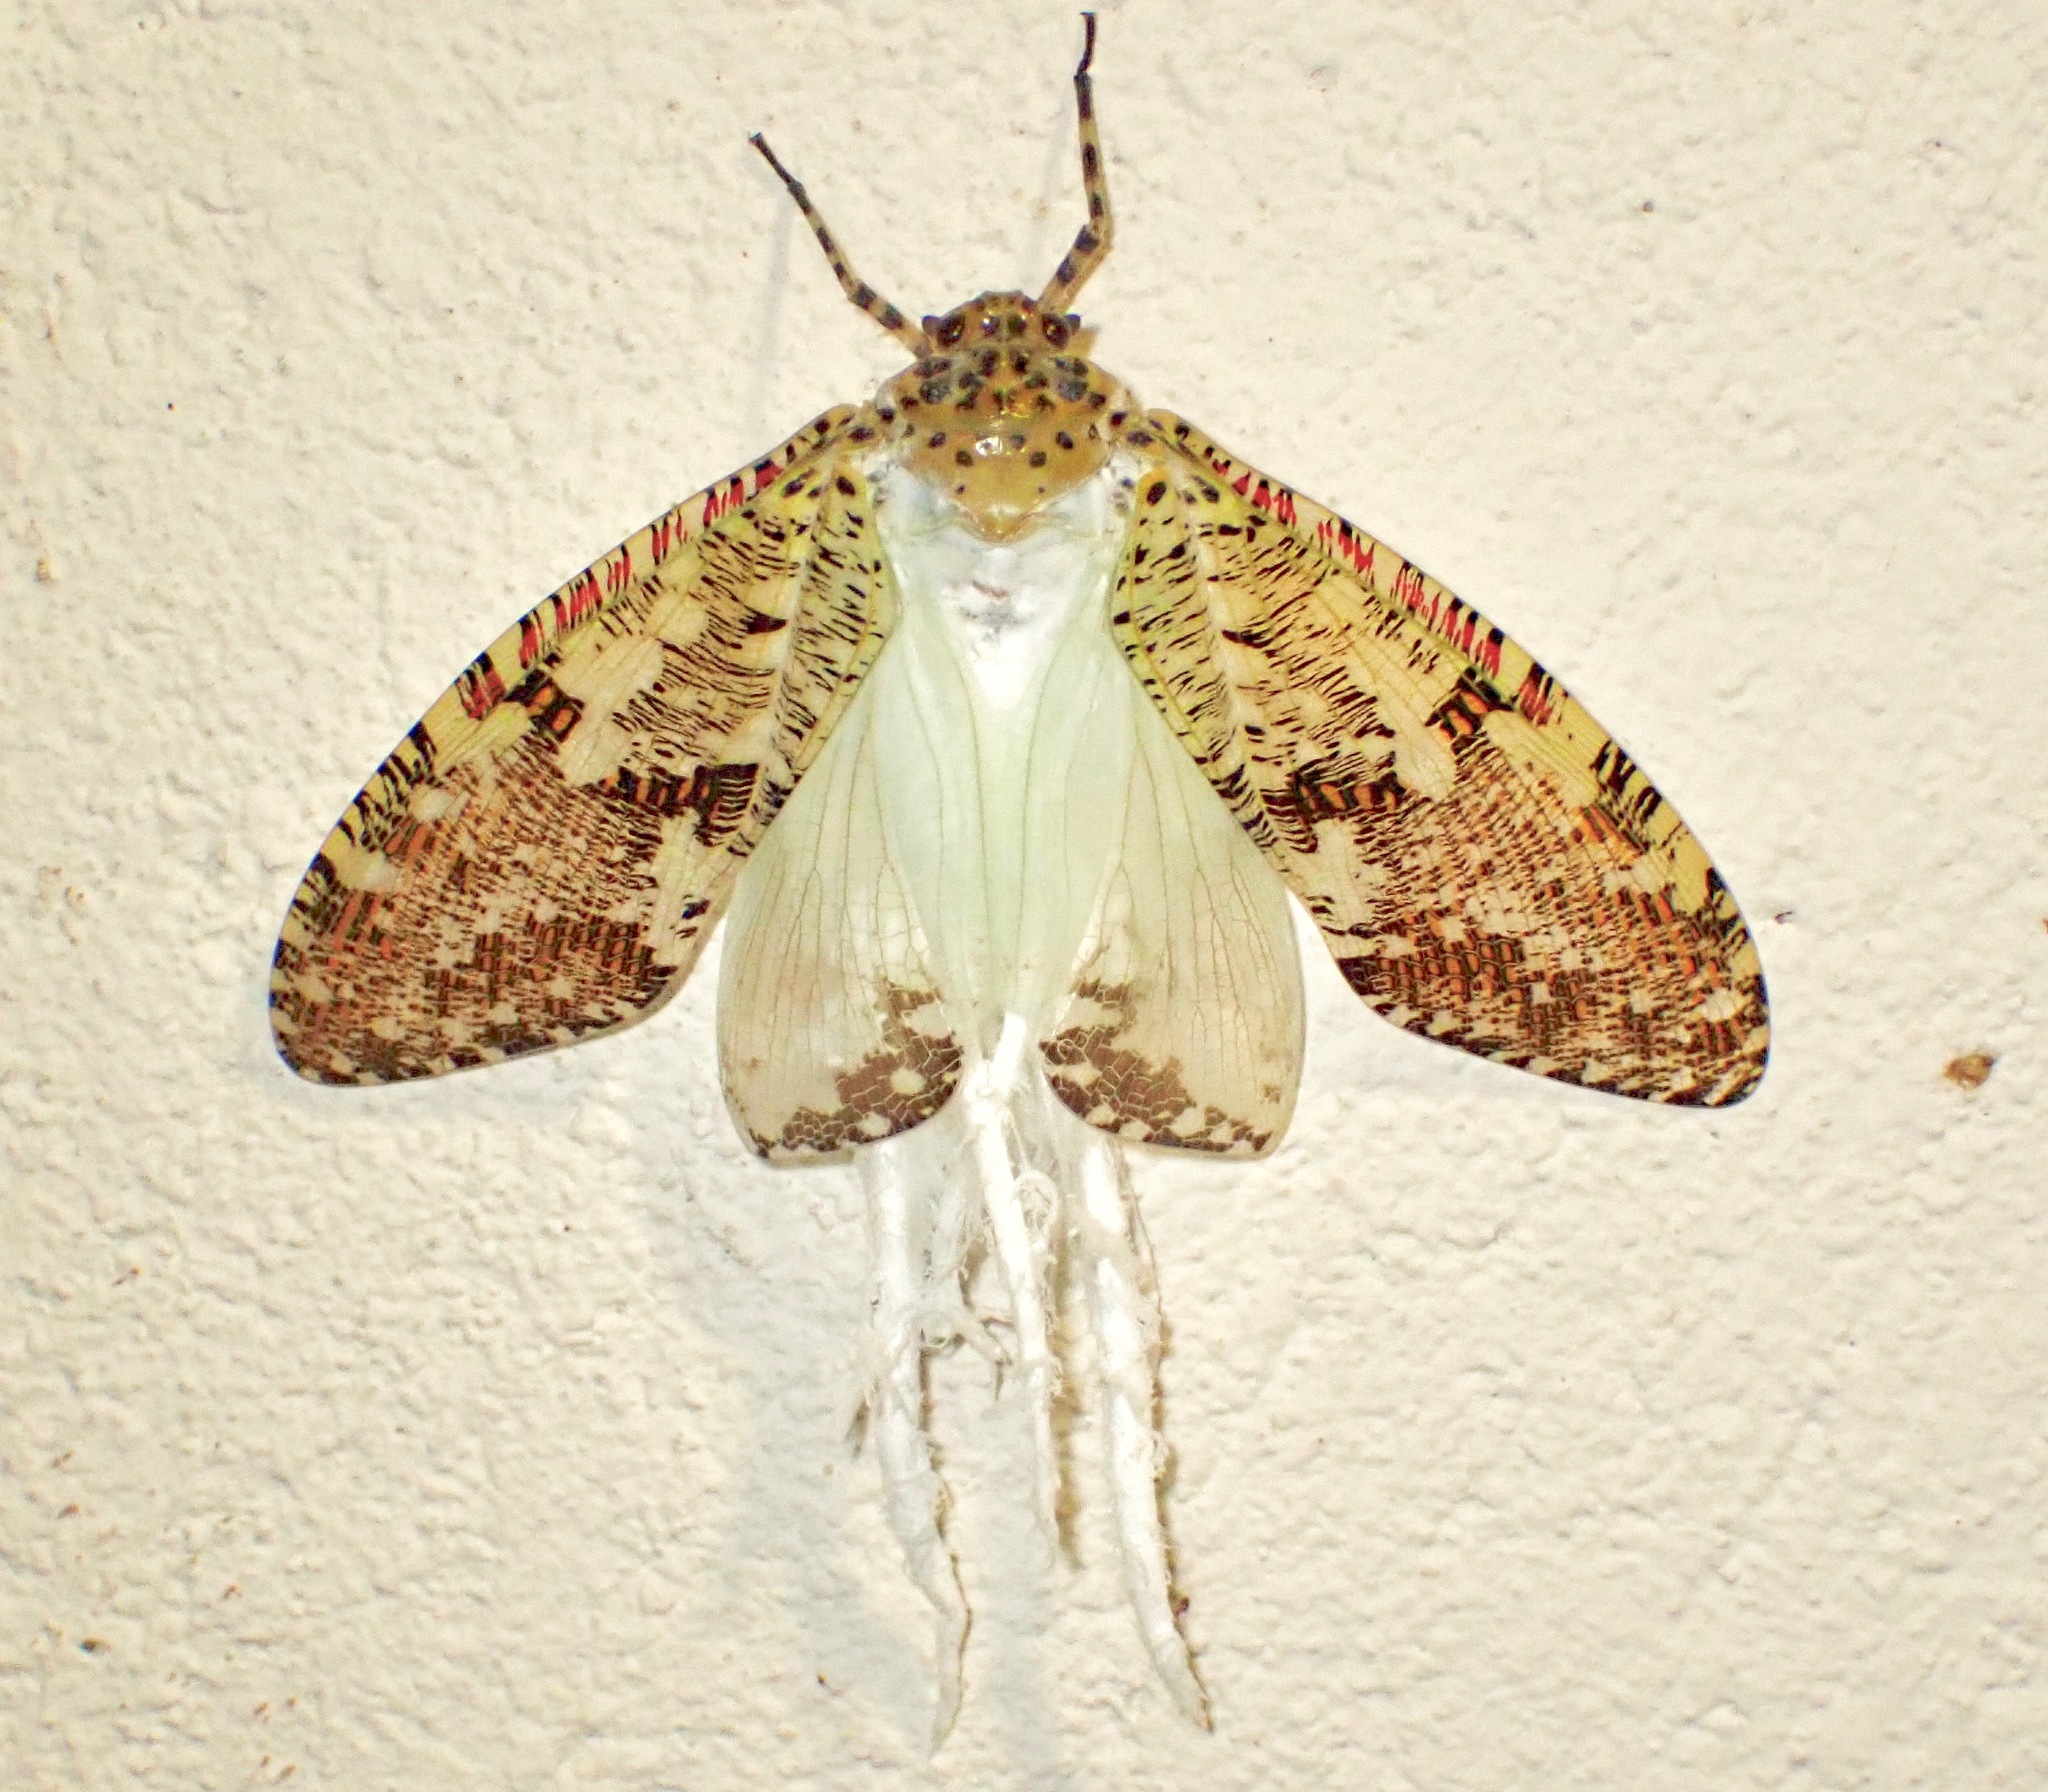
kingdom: Animalia
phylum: Arthropoda
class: Insecta
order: Hemiptera
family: Fulgoridae
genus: Phenax
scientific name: Phenax variegata
